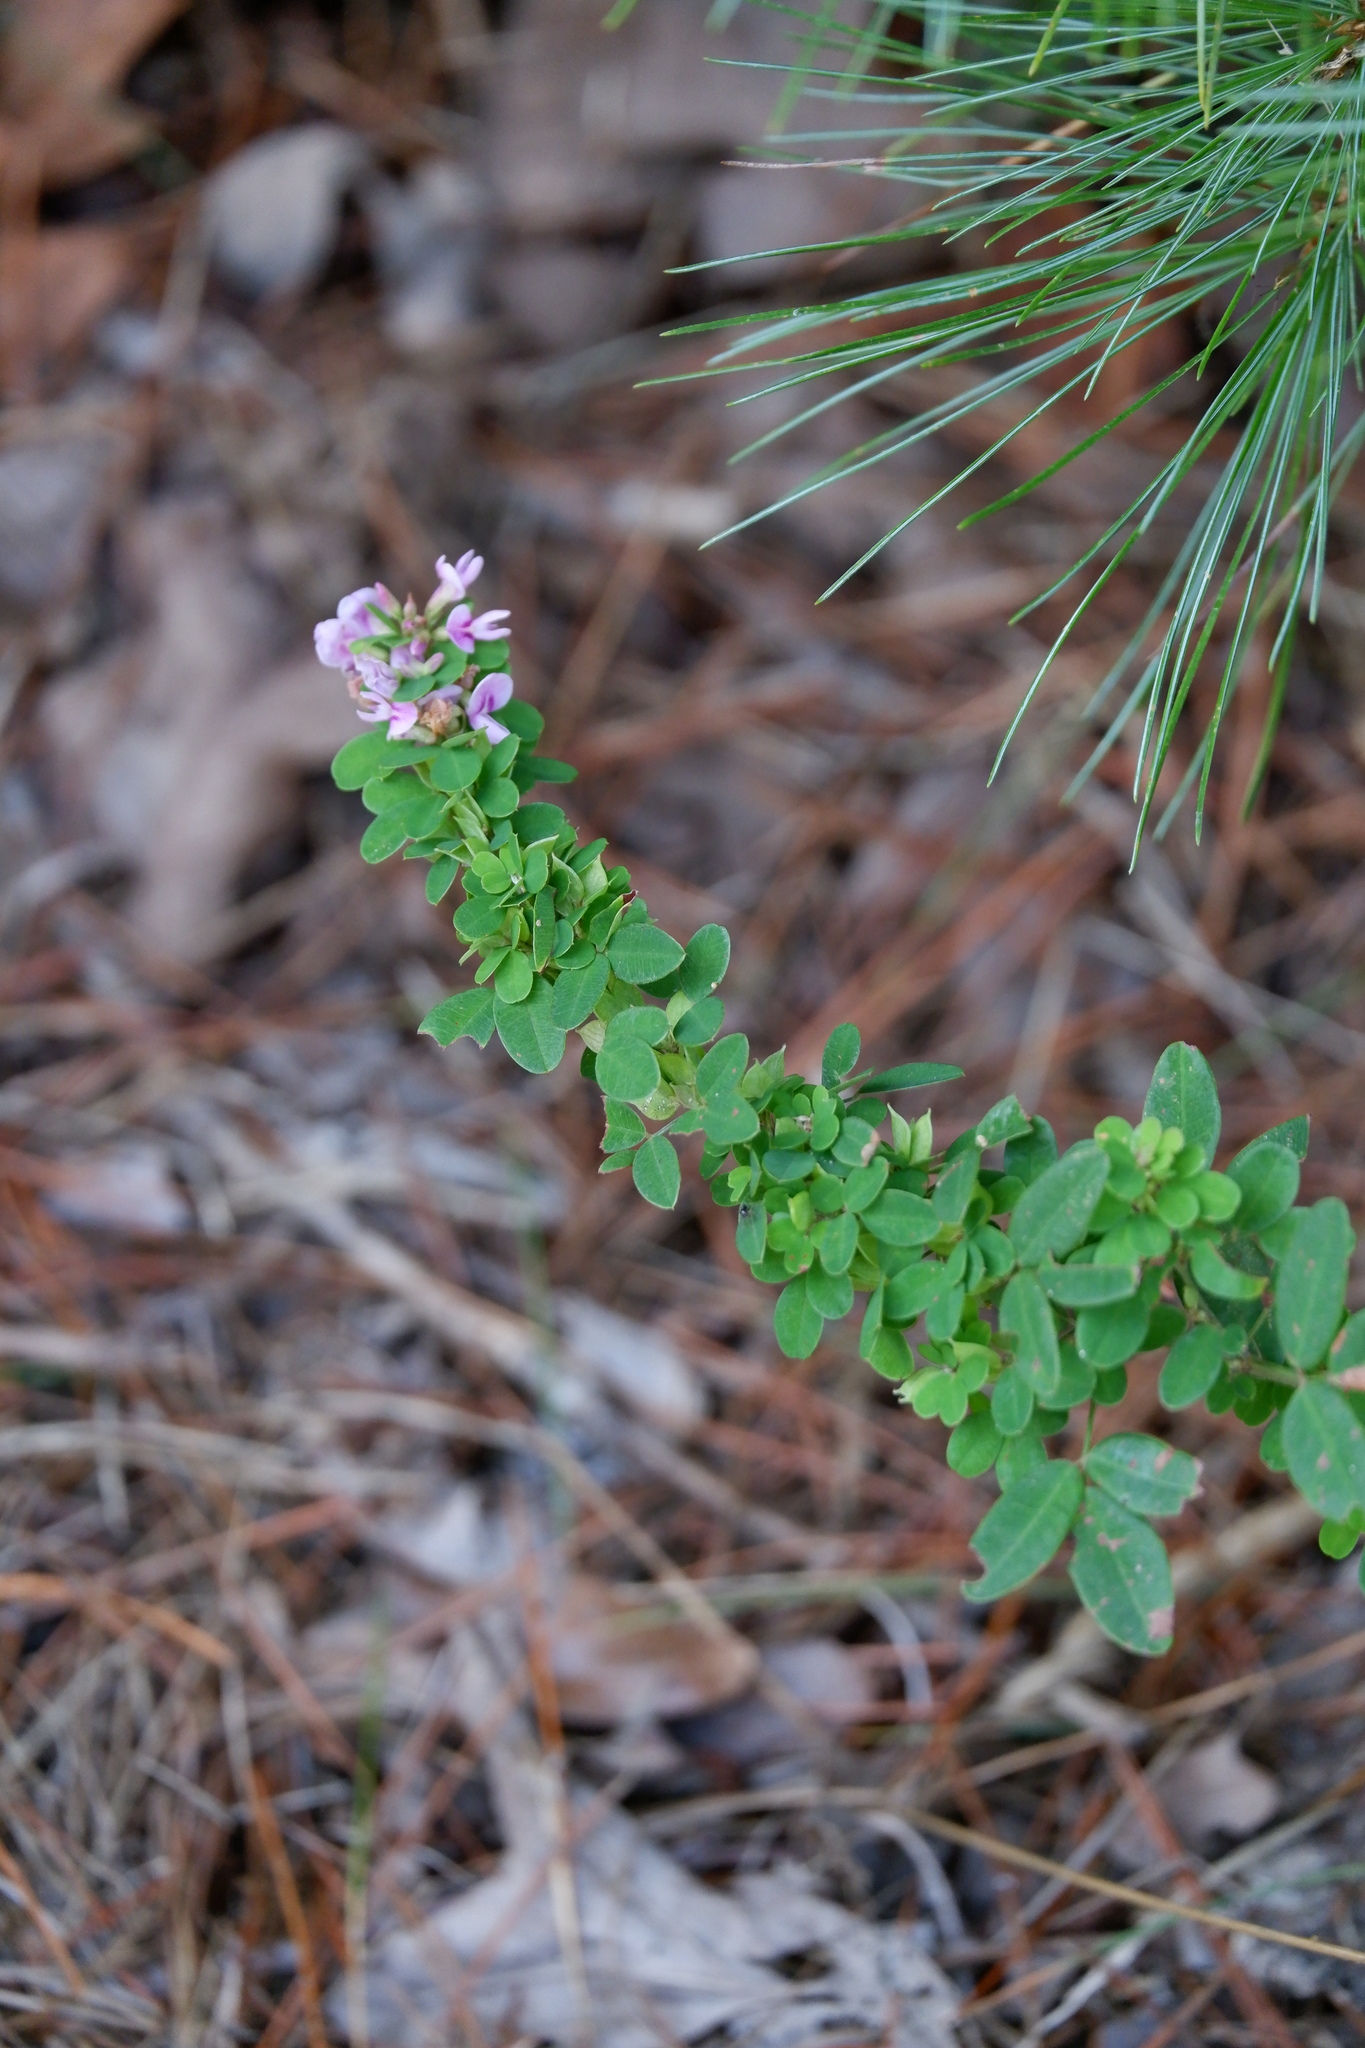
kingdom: Plantae
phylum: Tracheophyta
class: Magnoliopsida
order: Fabales
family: Fabaceae
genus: Lespedeza
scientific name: Lespedeza violacea
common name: Wand bush-clover
